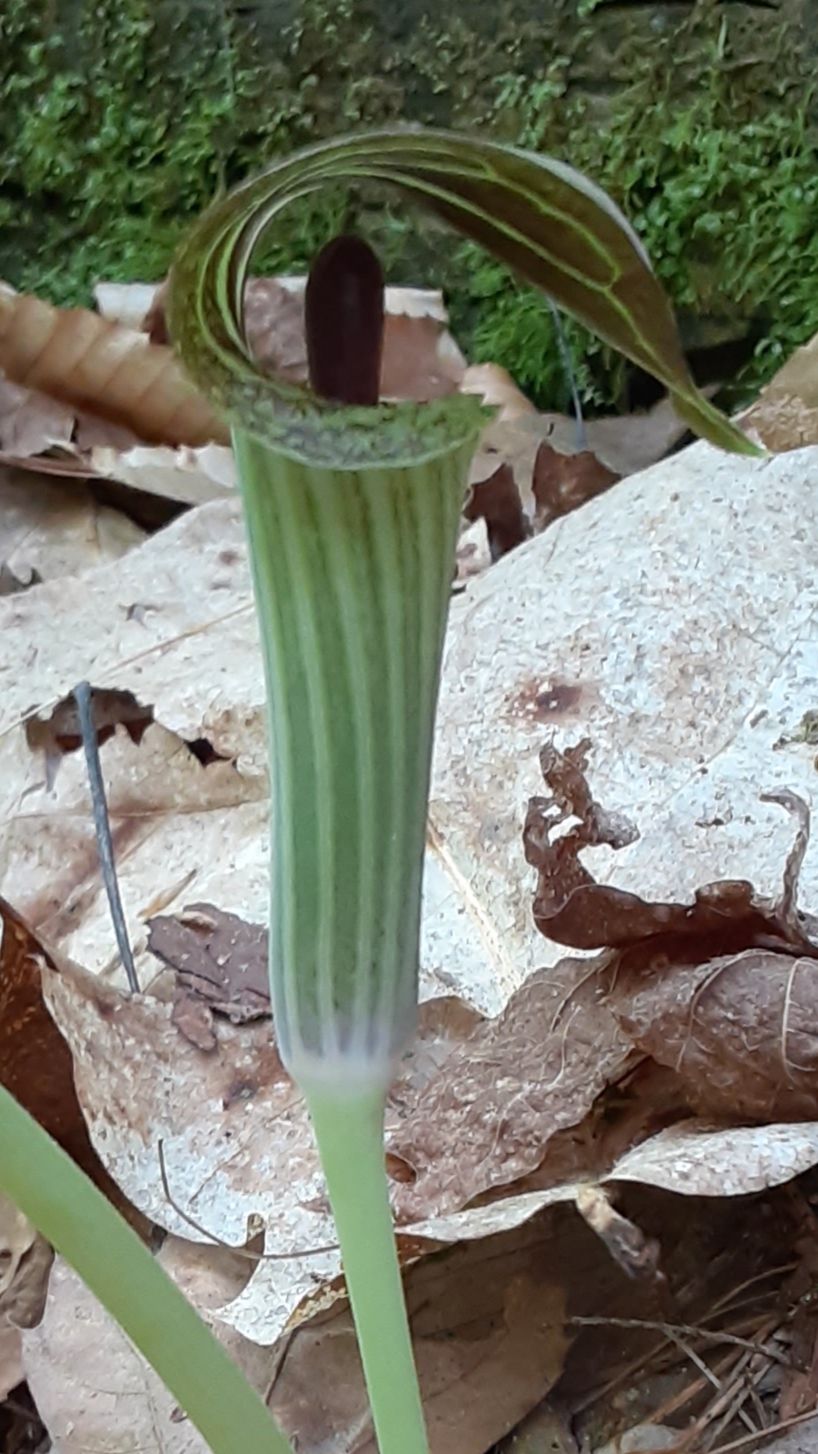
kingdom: Plantae
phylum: Tracheophyta
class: Liliopsida
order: Alismatales
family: Araceae
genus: Arisaema
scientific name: Arisaema triphyllum
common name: Jack-in-the-pulpit
